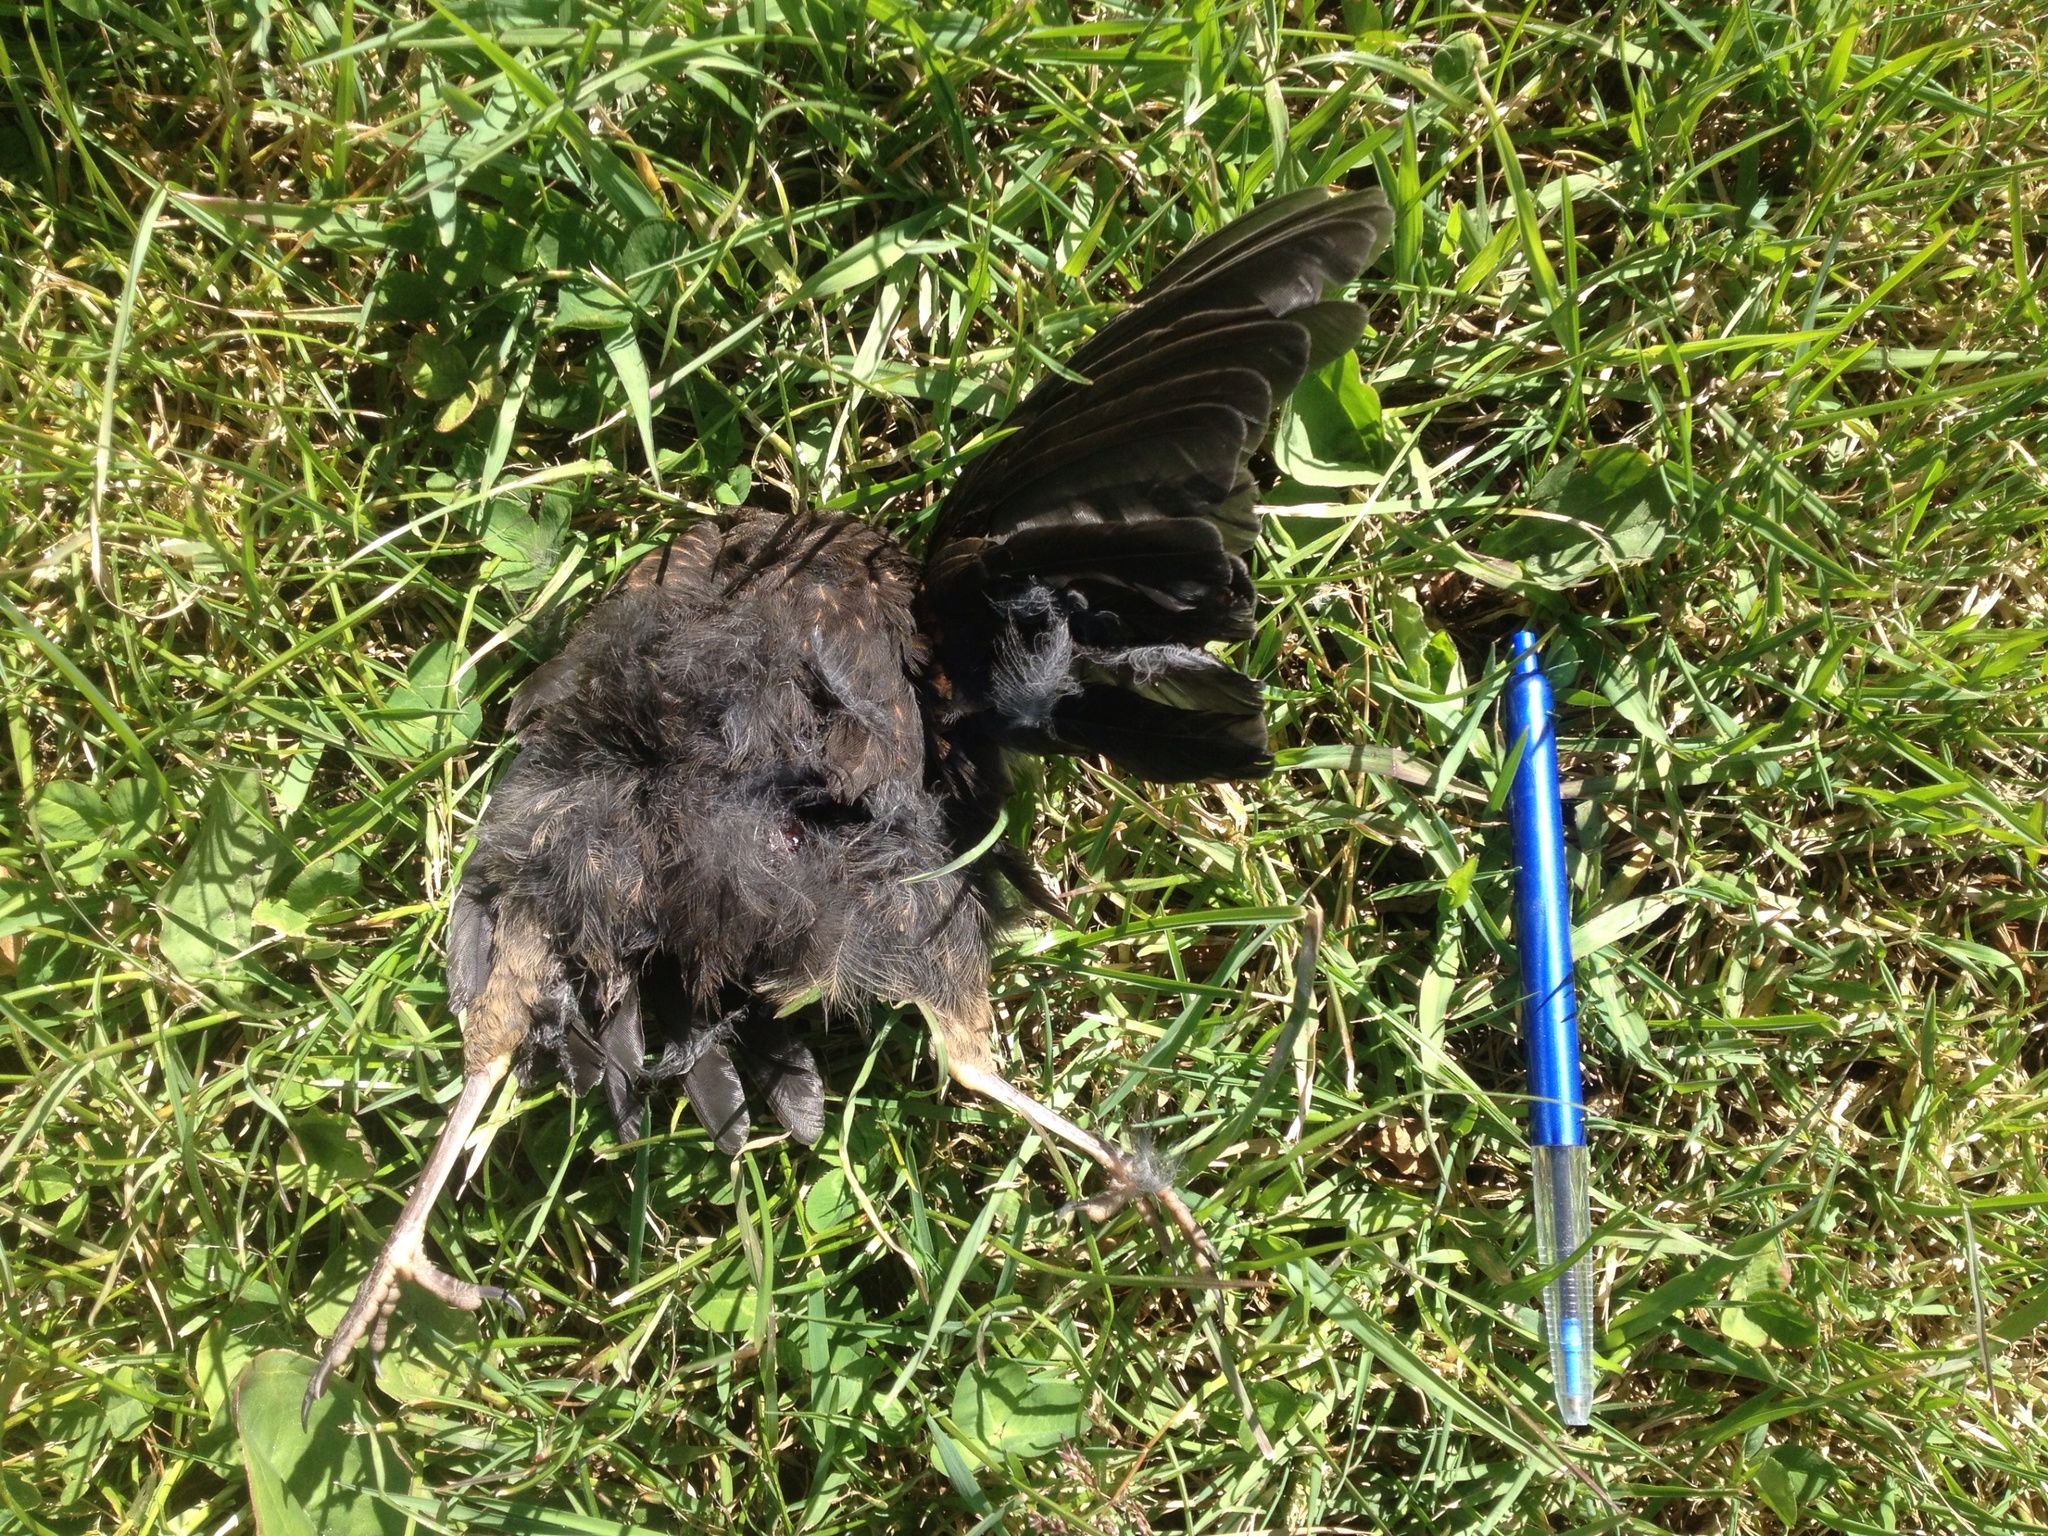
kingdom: Animalia
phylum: Chordata
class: Aves
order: Passeriformes
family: Turdidae
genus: Turdus
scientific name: Turdus merula
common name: Common blackbird
